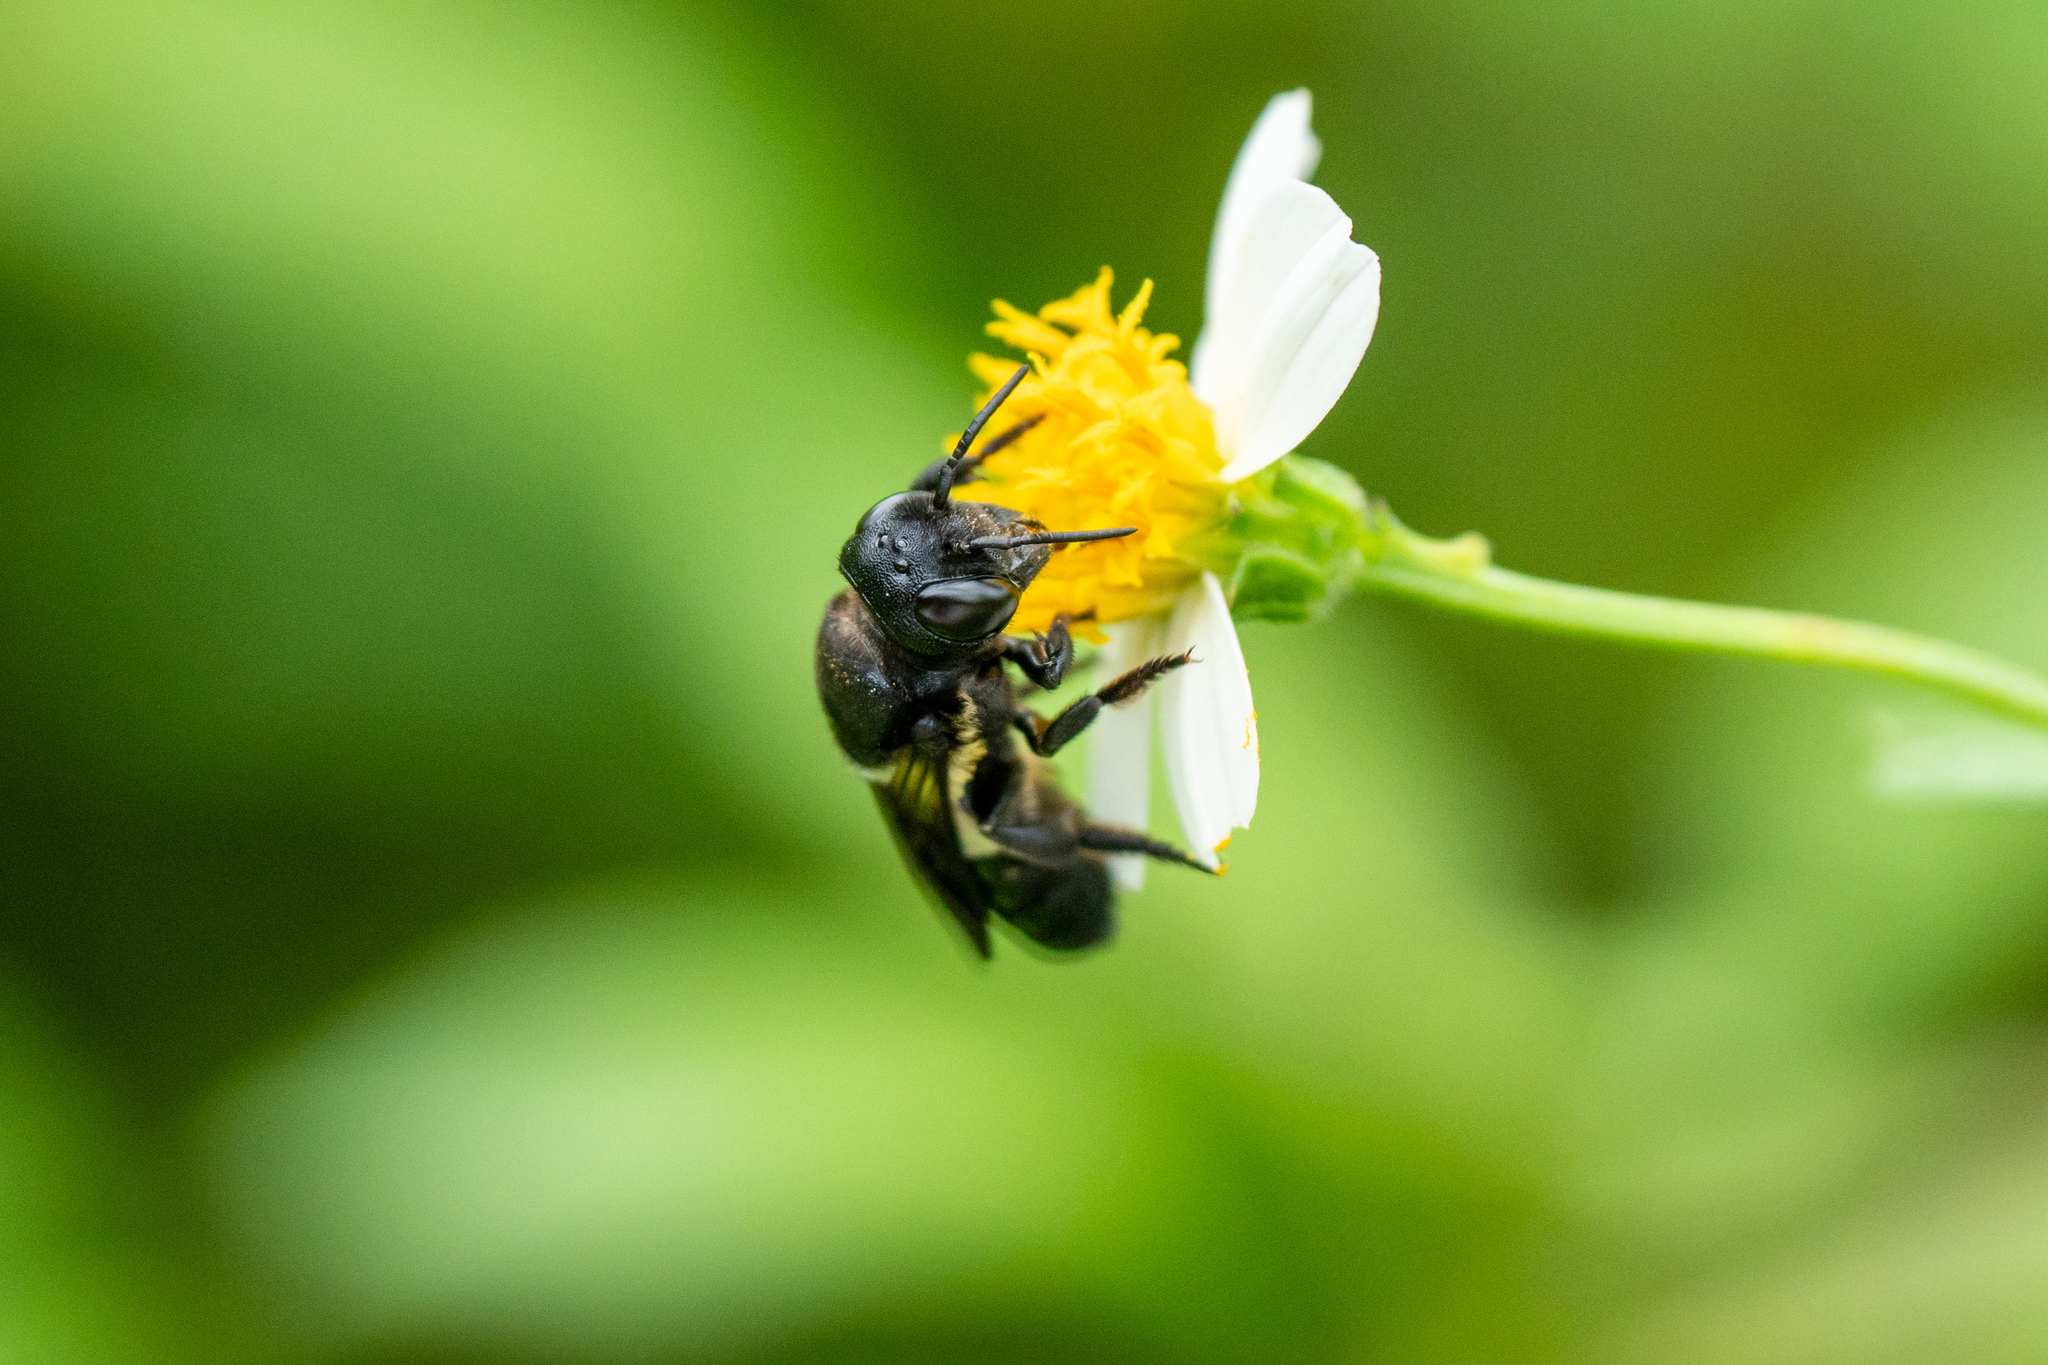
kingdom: Animalia
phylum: Arthropoda
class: Insecta
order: Hymenoptera
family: Megachilidae
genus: Megachile
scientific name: Megachile conjuncta
